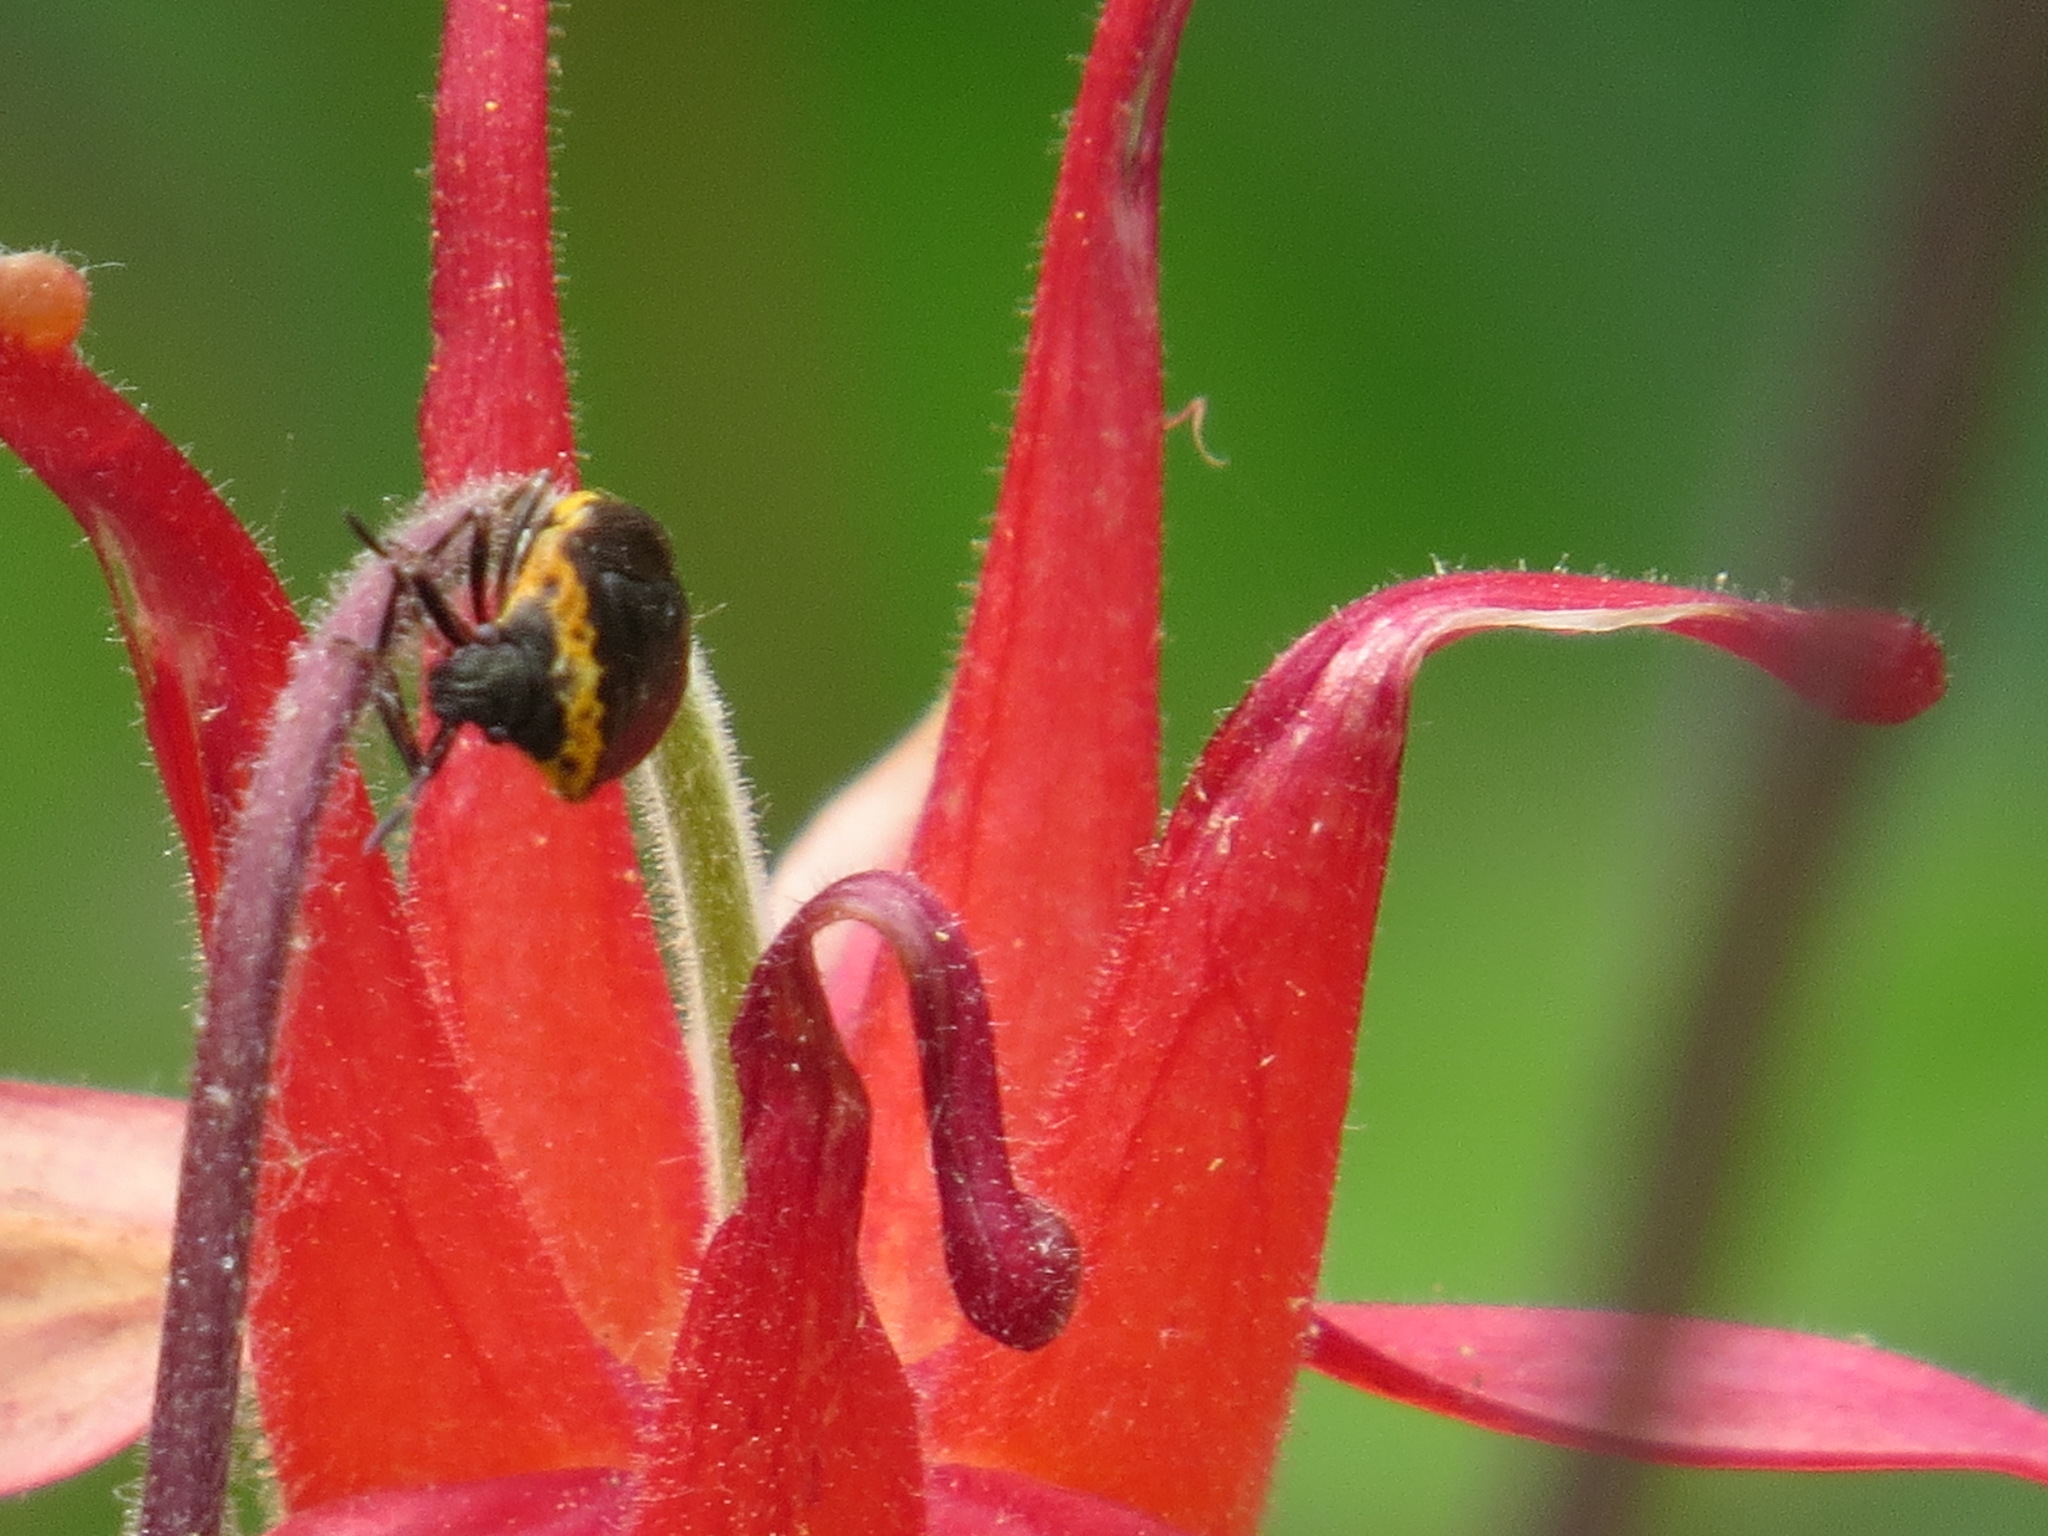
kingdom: Animalia
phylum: Arthropoda
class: Insecta
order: Hemiptera
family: Pentatomidae
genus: Cosmopepla
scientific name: Cosmopepla uhleri
